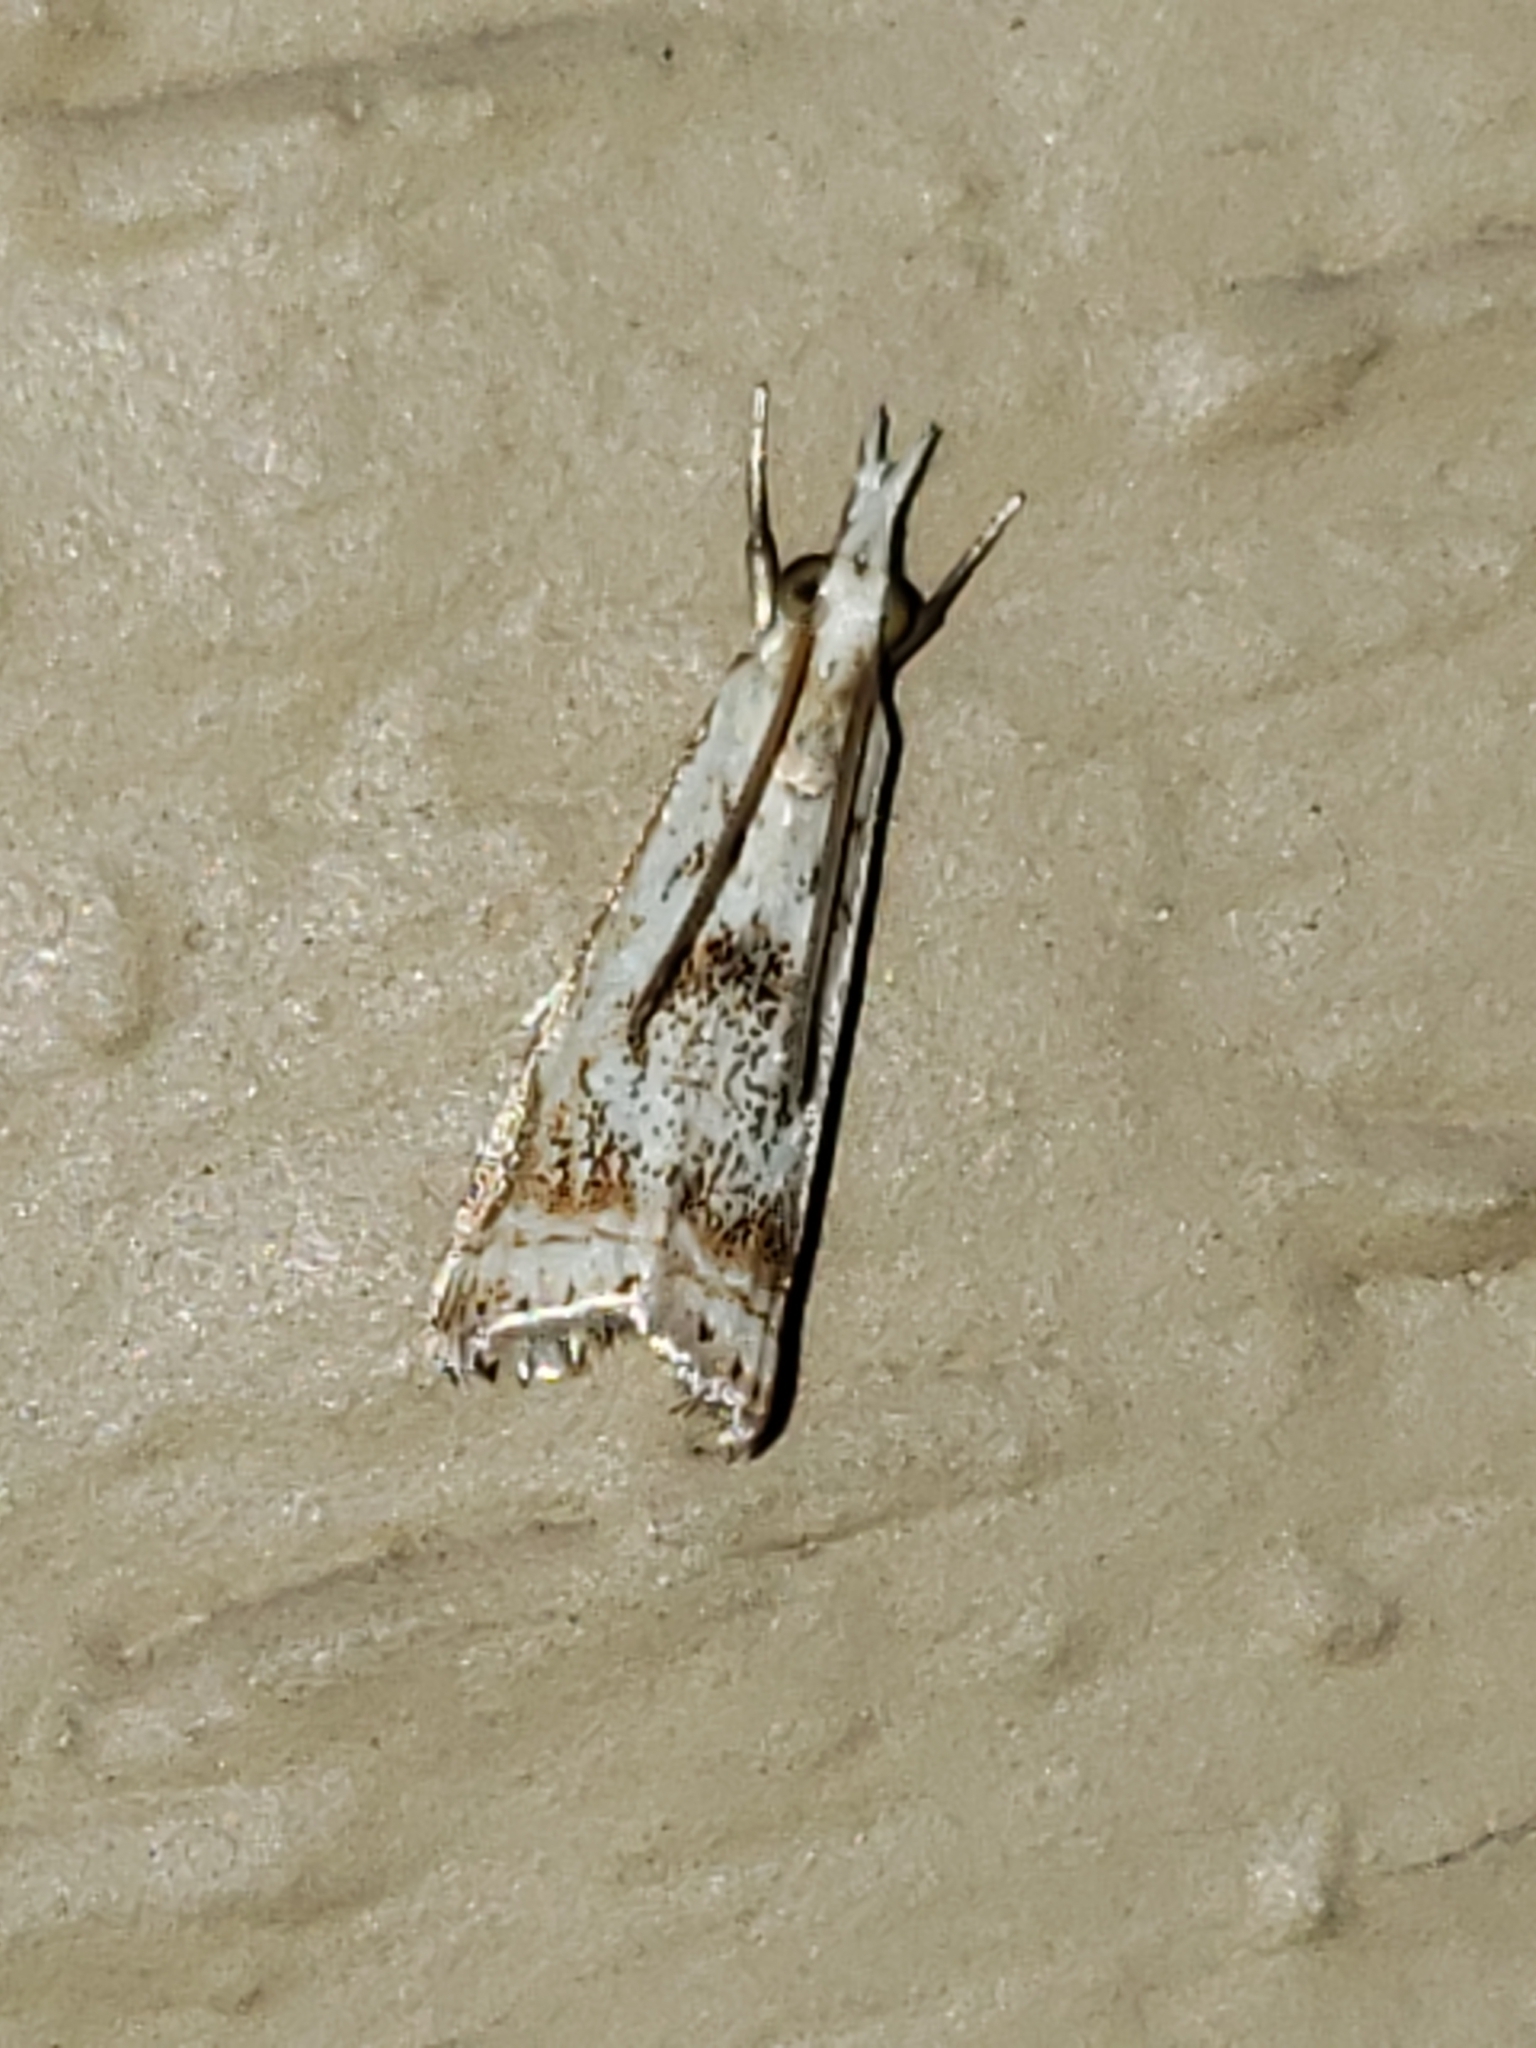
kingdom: Animalia
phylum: Arthropoda
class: Insecta
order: Lepidoptera
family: Crambidae
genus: Microcrambus
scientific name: Microcrambus elegans
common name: Elegant grass-veneer
